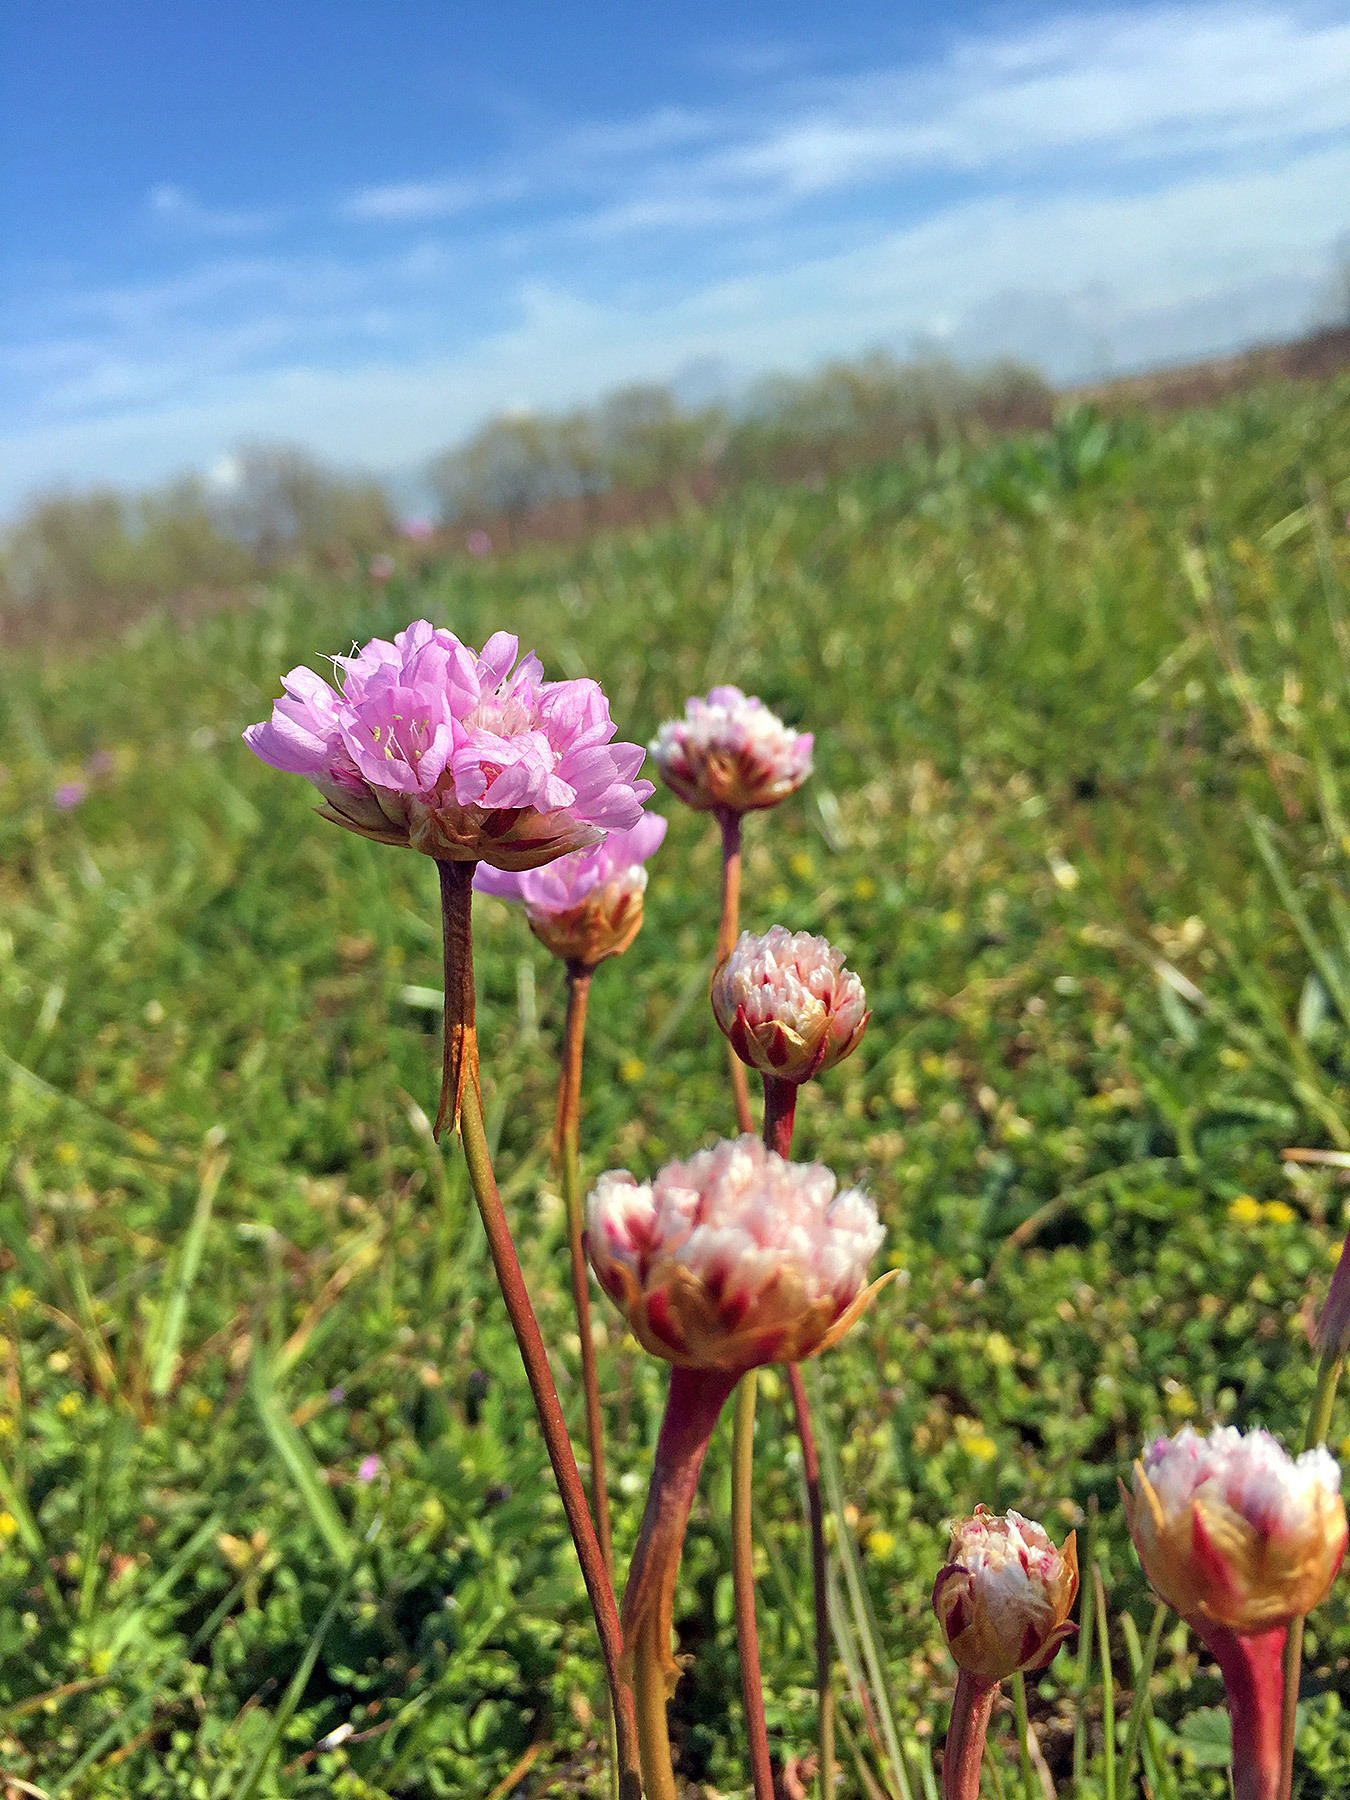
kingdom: Plantae
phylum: Tracheophyta
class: Magnoliopsida
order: Caryophyllales
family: Plumbaginaceae
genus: Armeria
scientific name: Armeria maritima
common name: Thrift
